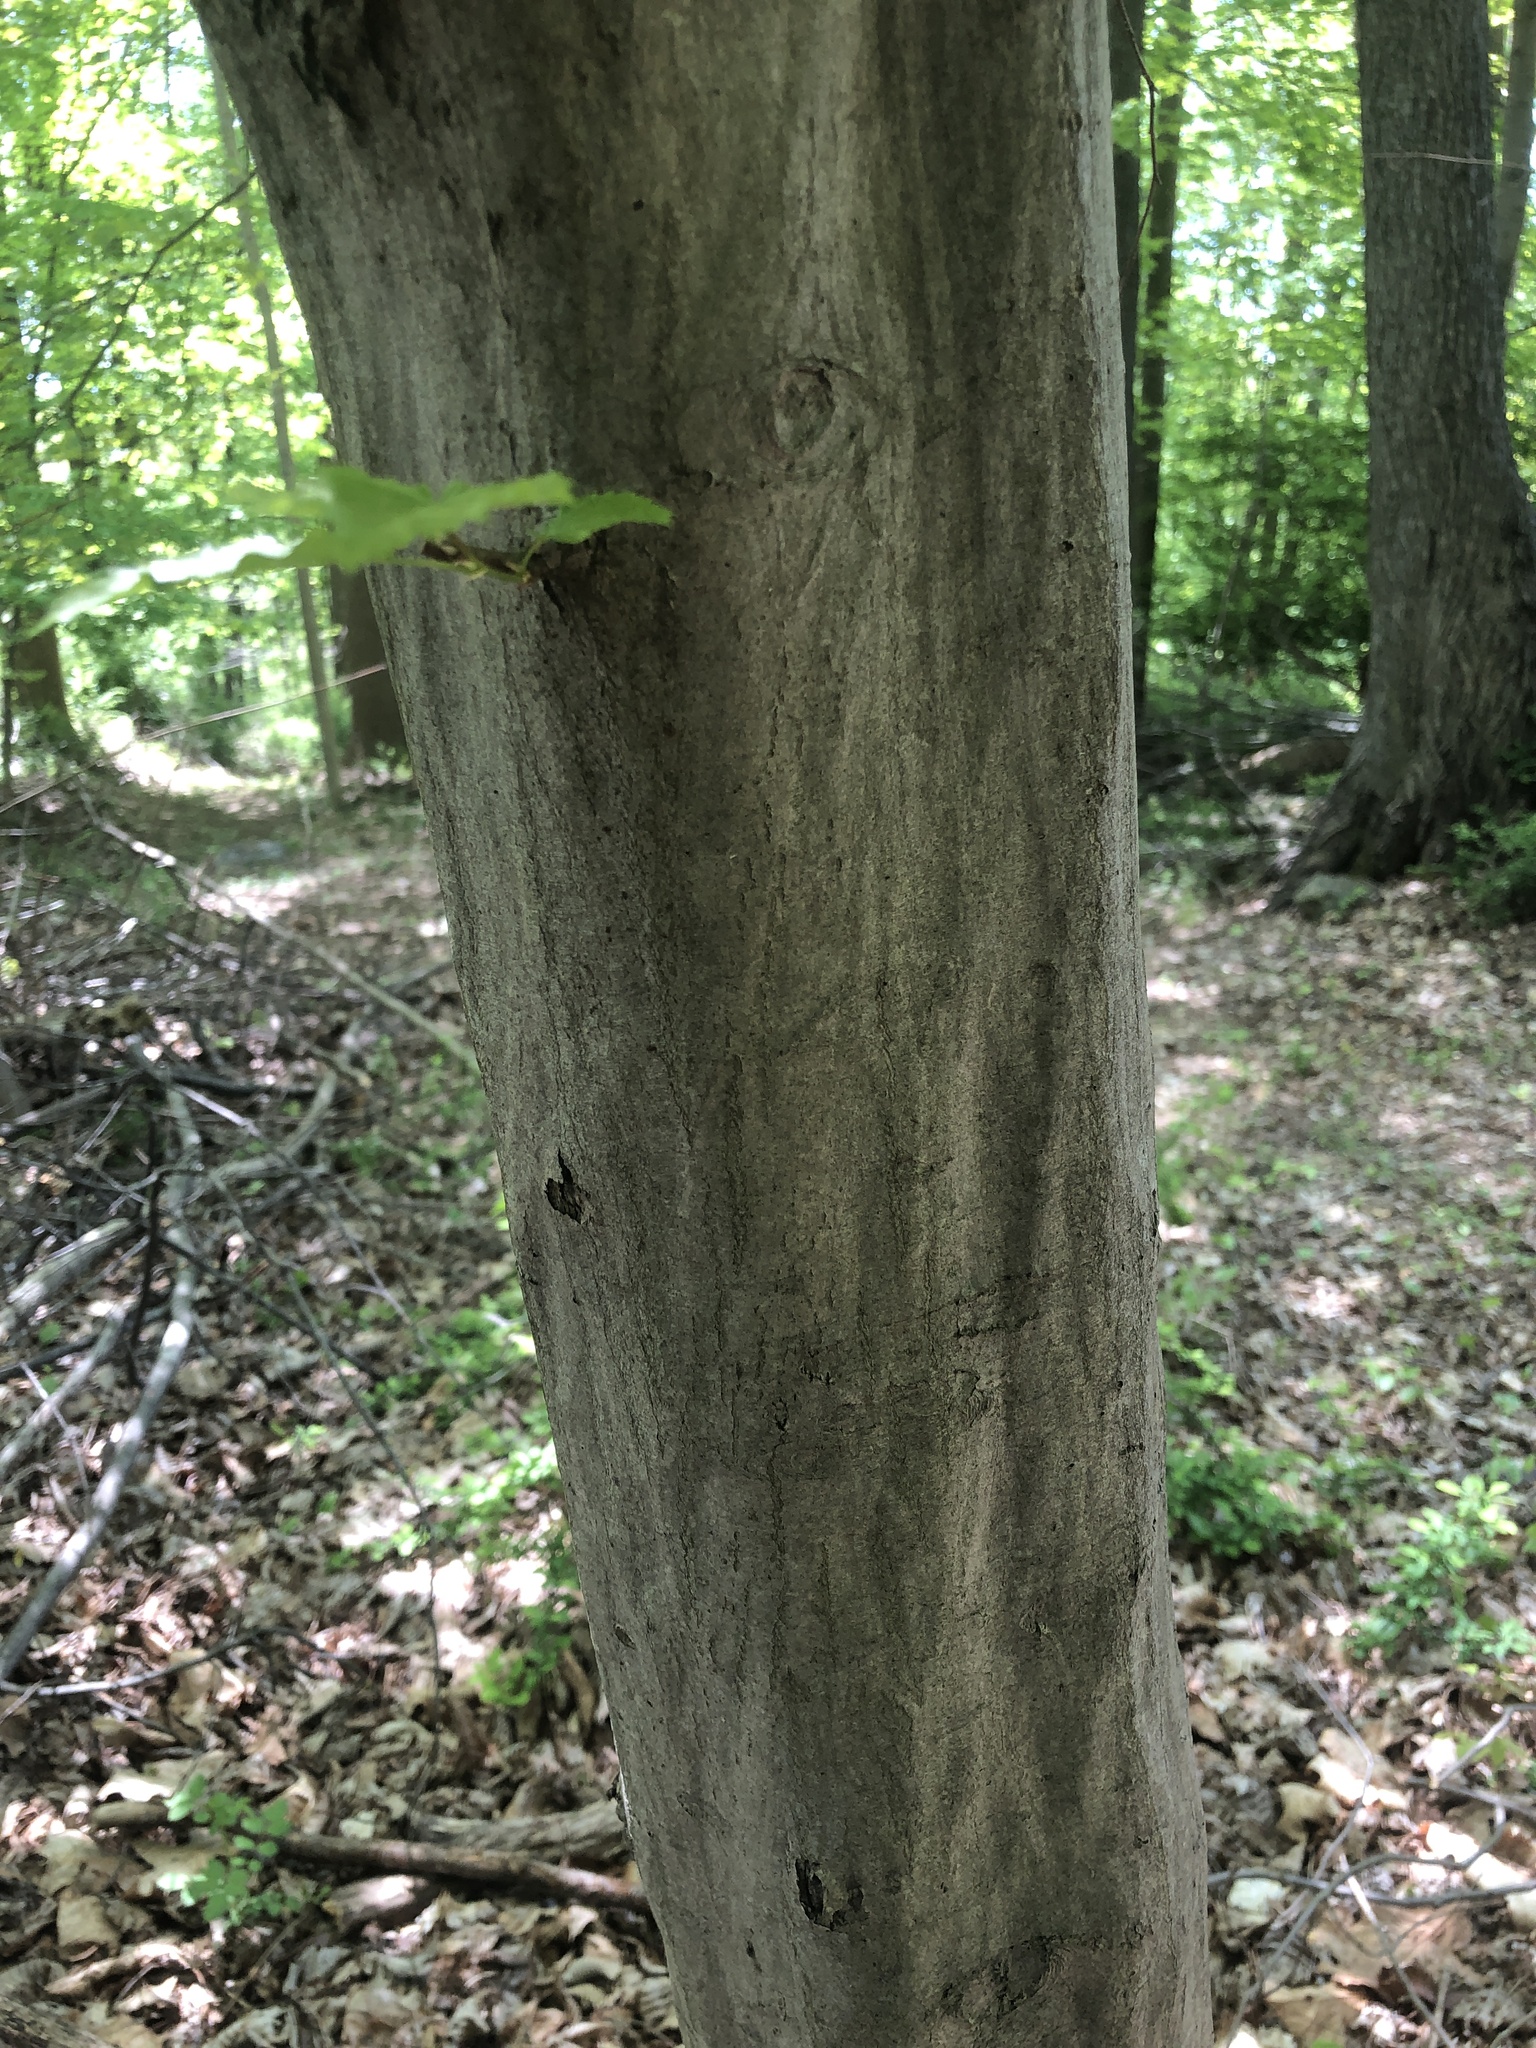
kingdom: Plantae
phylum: Tracheophyta
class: Magnoliopsida
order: Fagales
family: Betulaceae
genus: Carpinus
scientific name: Carpinus caroliniana
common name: American hornbeam
